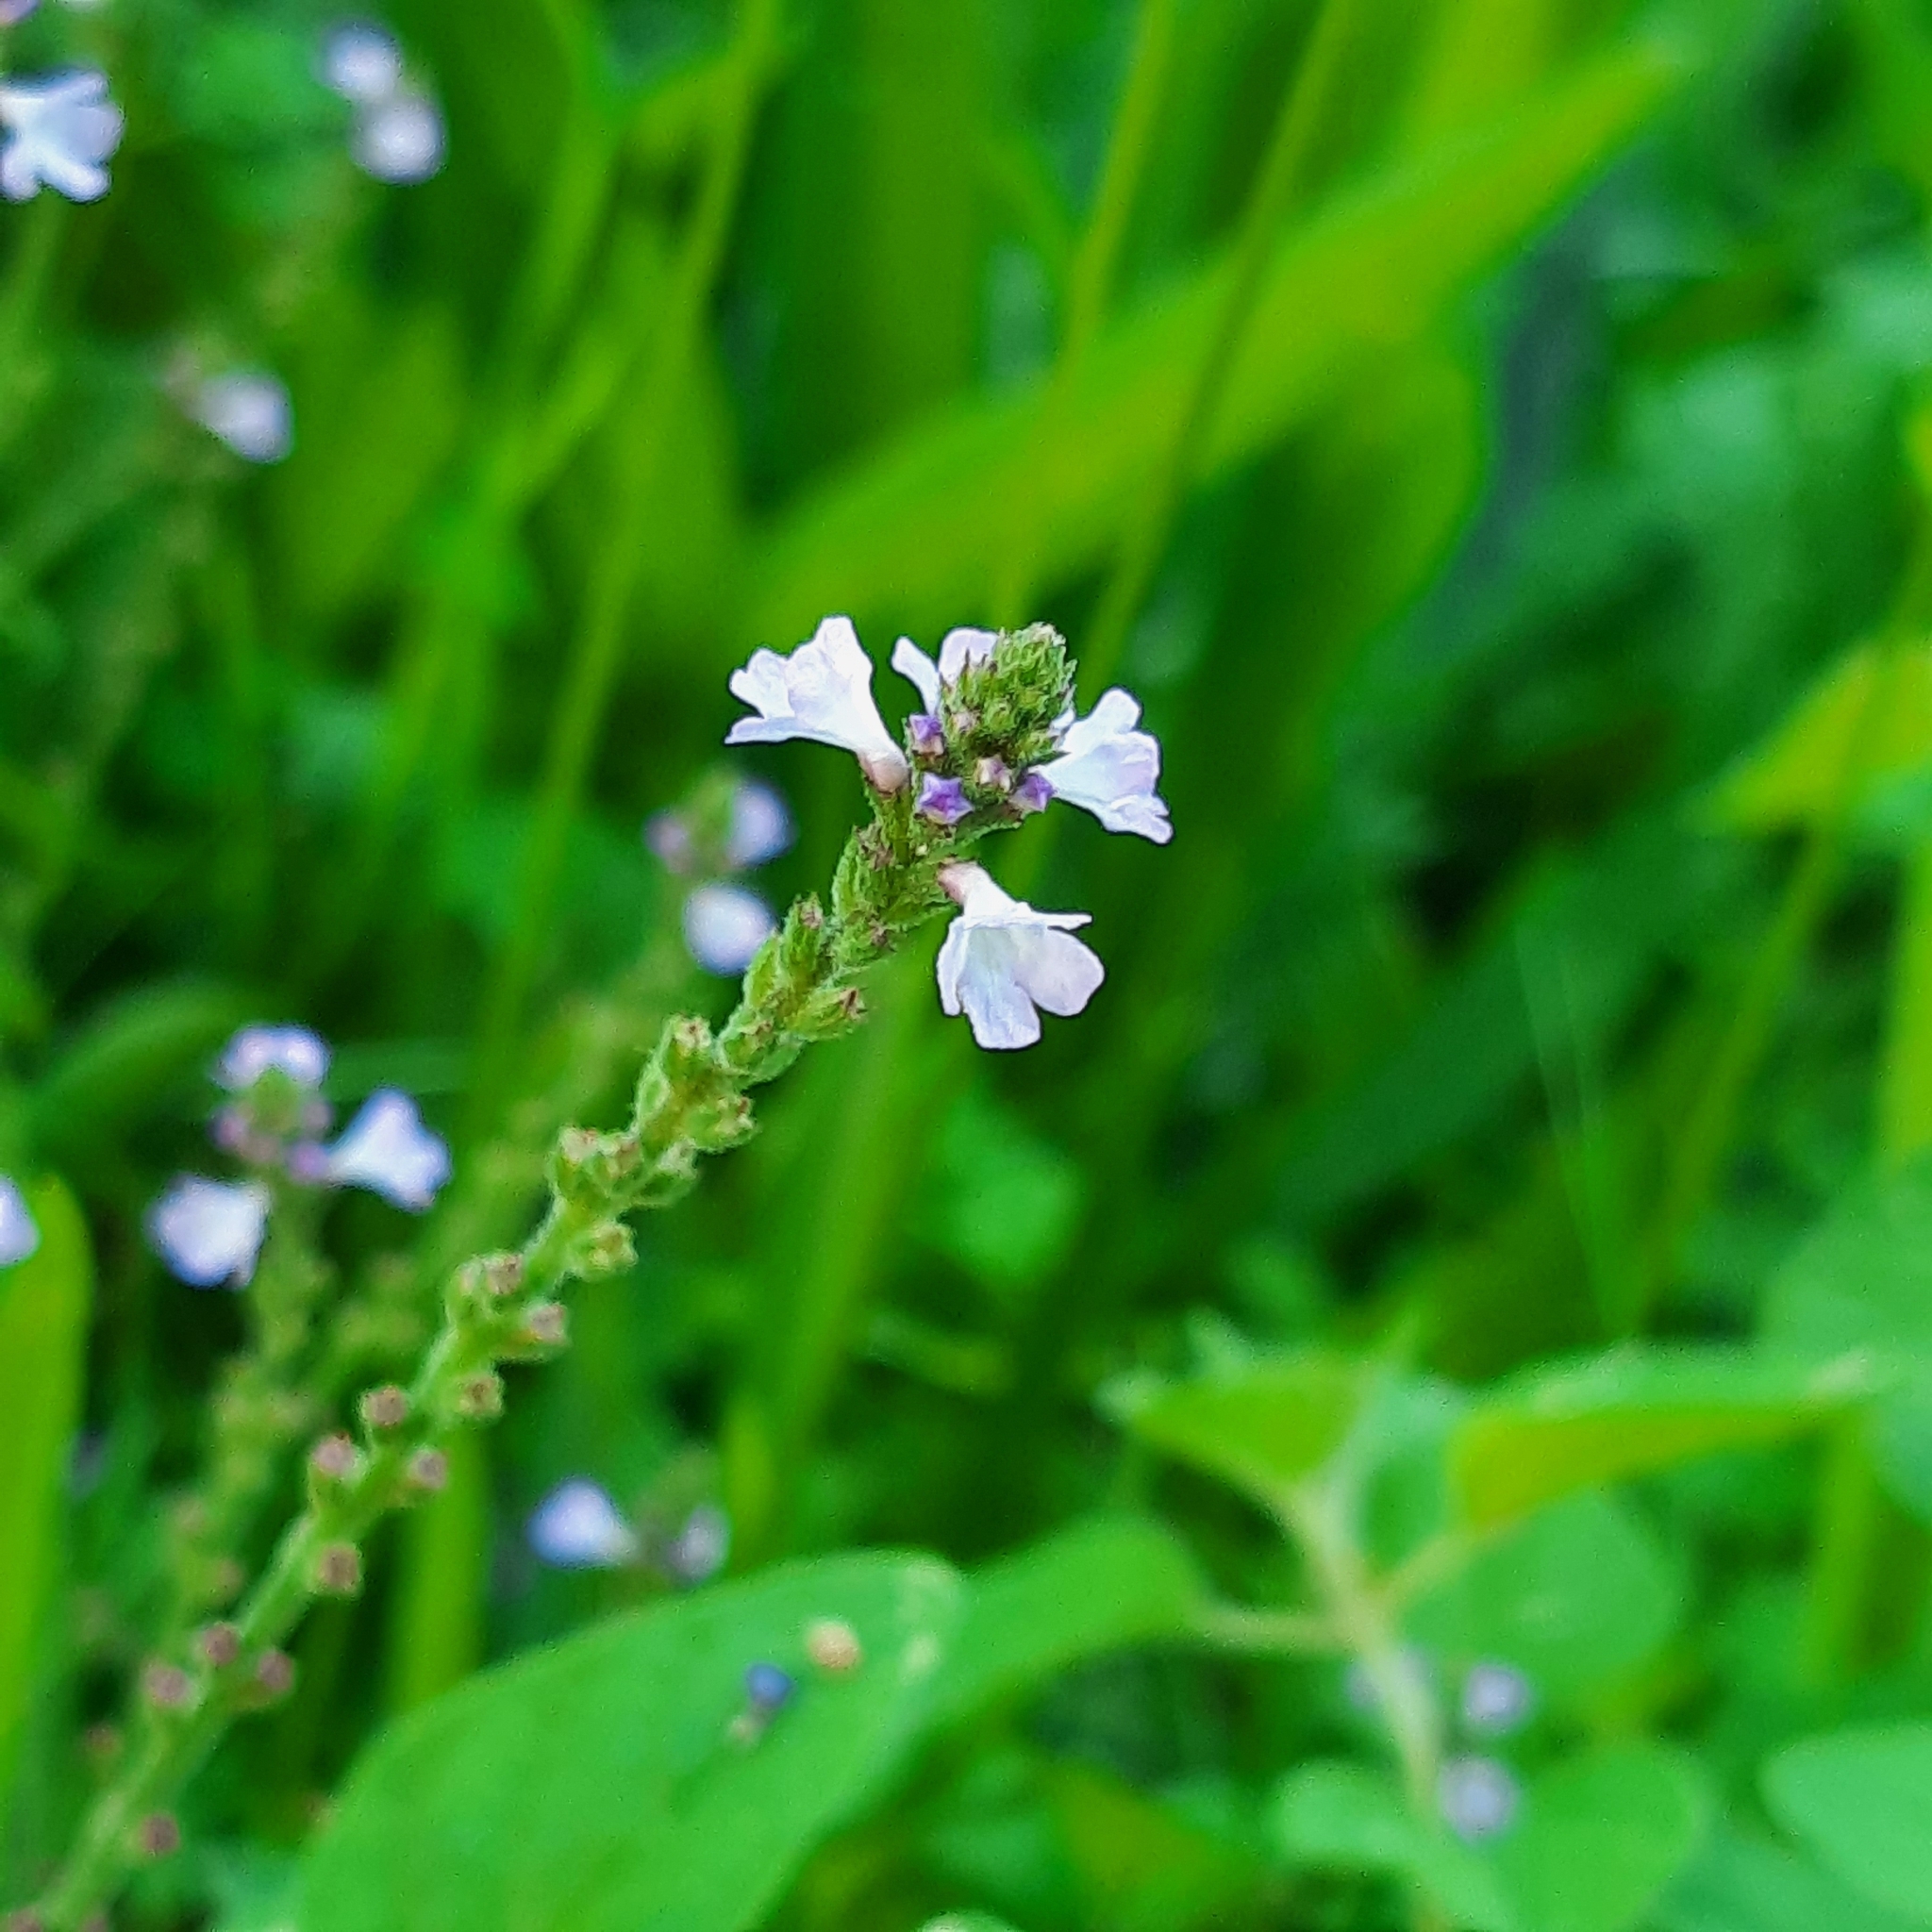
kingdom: Plantae
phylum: Tracheophyta
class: Magnoliopsida
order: Lamiales
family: Verbenaceae
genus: Verbena
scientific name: Verbena officinalis
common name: Vervain
